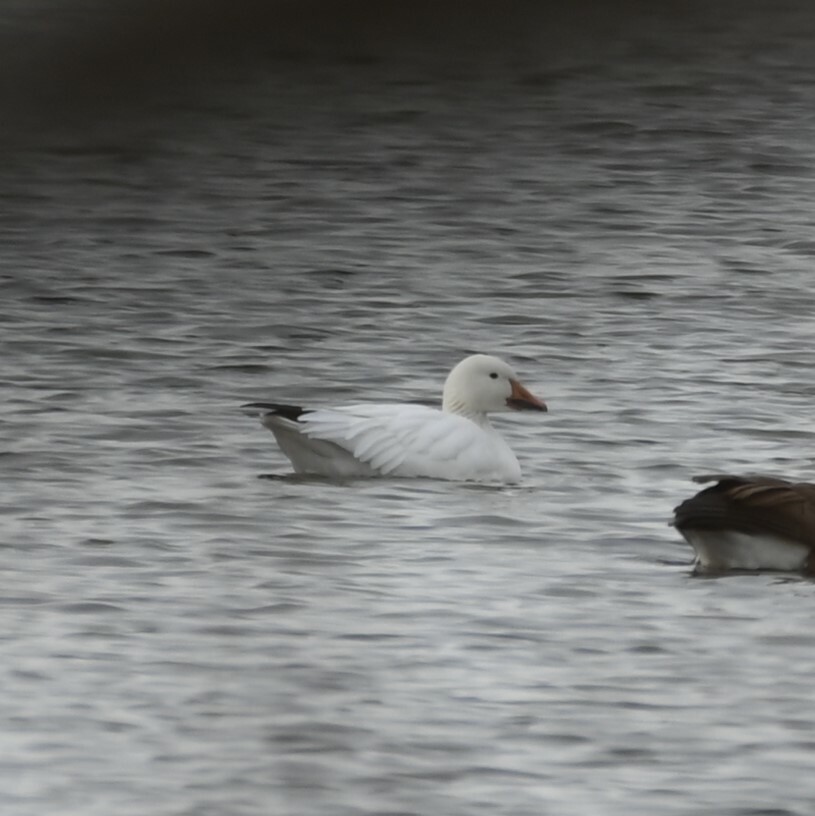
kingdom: Animalia
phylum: Chordata
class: Aves
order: Anseriformes
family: Anatidae
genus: Anser
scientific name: Anser caerulescens
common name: Snow goose
